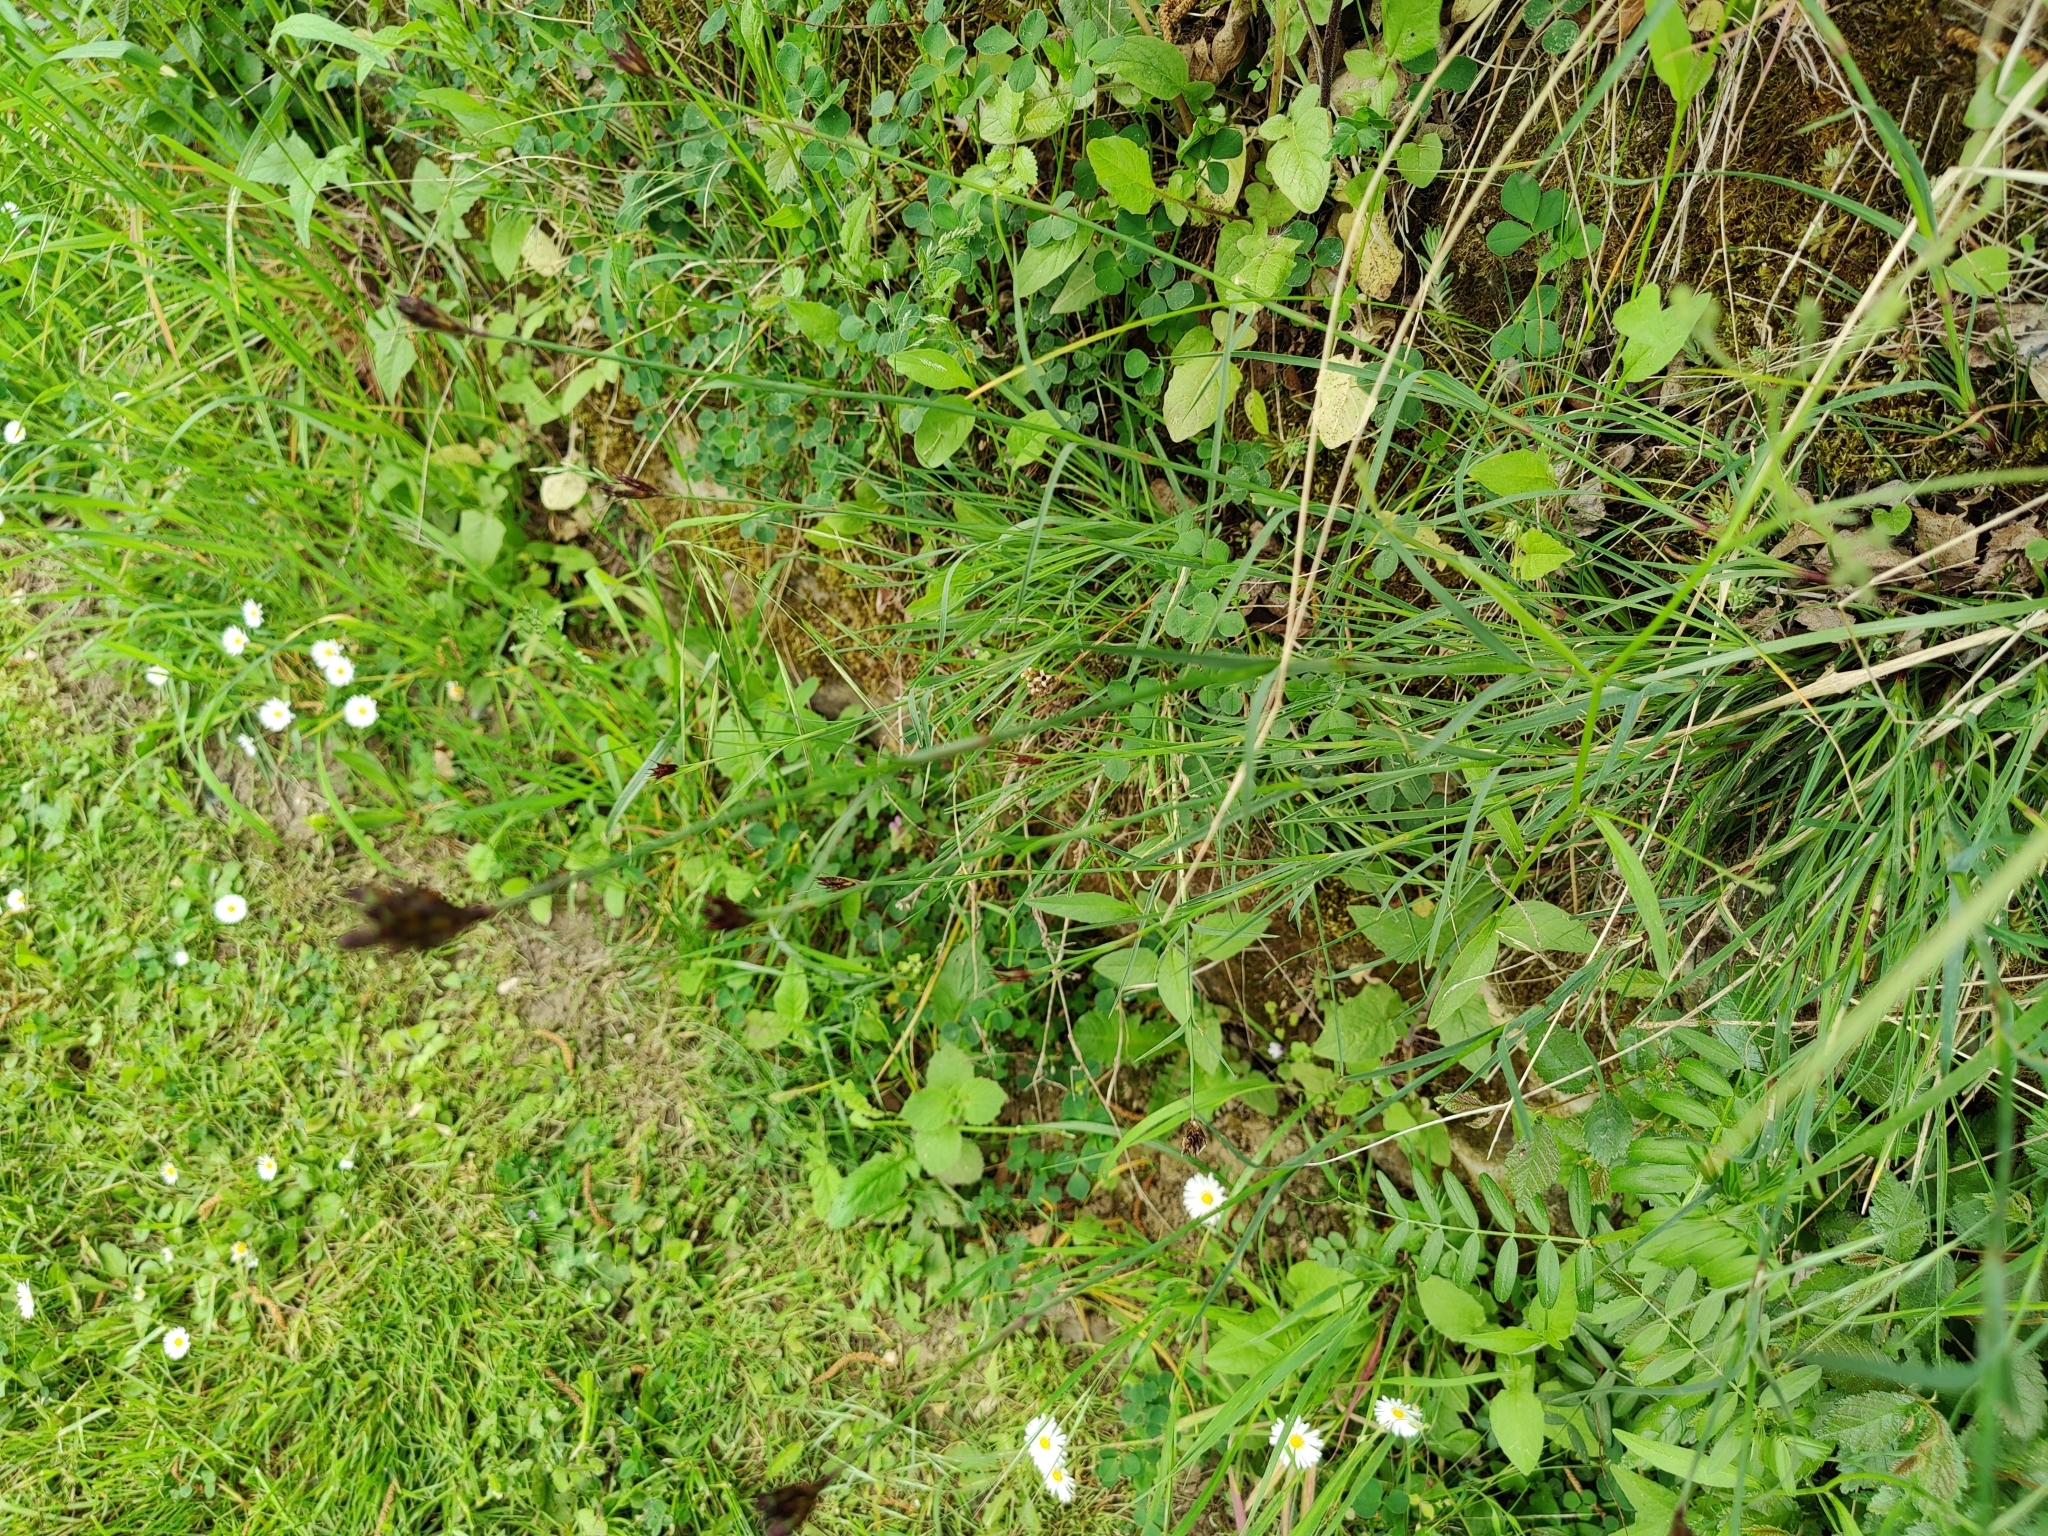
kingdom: Plantae
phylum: Tracheophyta
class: Magnoliopsida
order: Caryophyllales
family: Caryophyllaceae
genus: Dianthus
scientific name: Dianthus carthusianorum
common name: Carthusian pink
